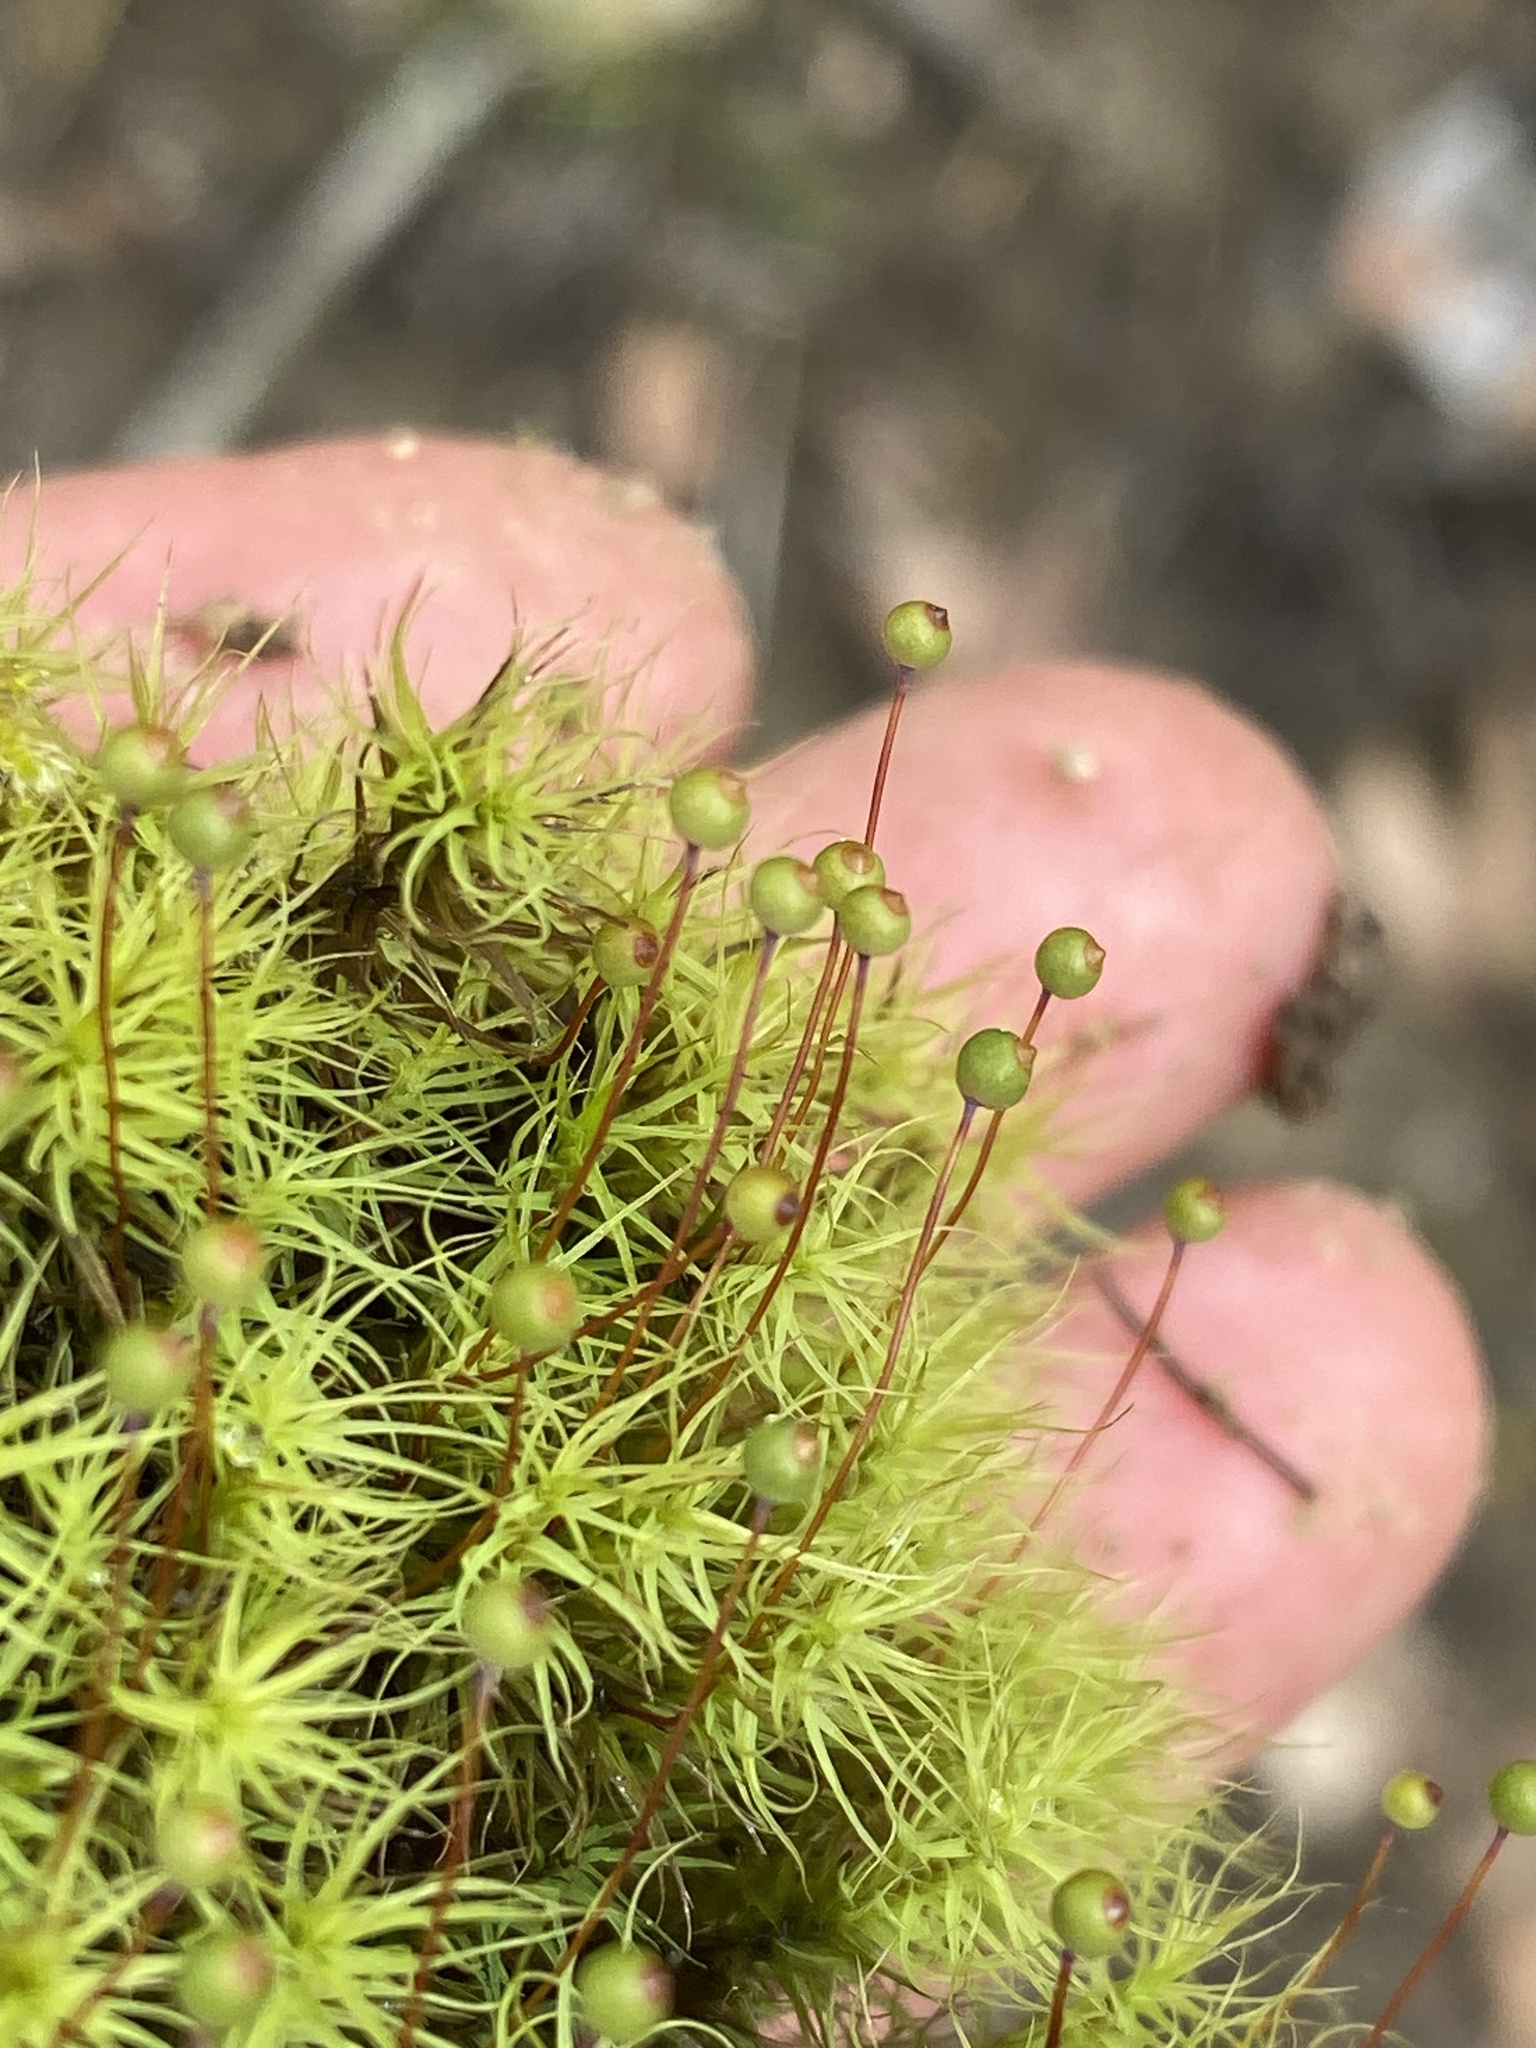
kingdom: Plantae
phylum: Bryophyta
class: Bryopsida
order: Bartramiales
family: Bartramiaceae
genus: Bartramia
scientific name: Bartramia ithyphylla
